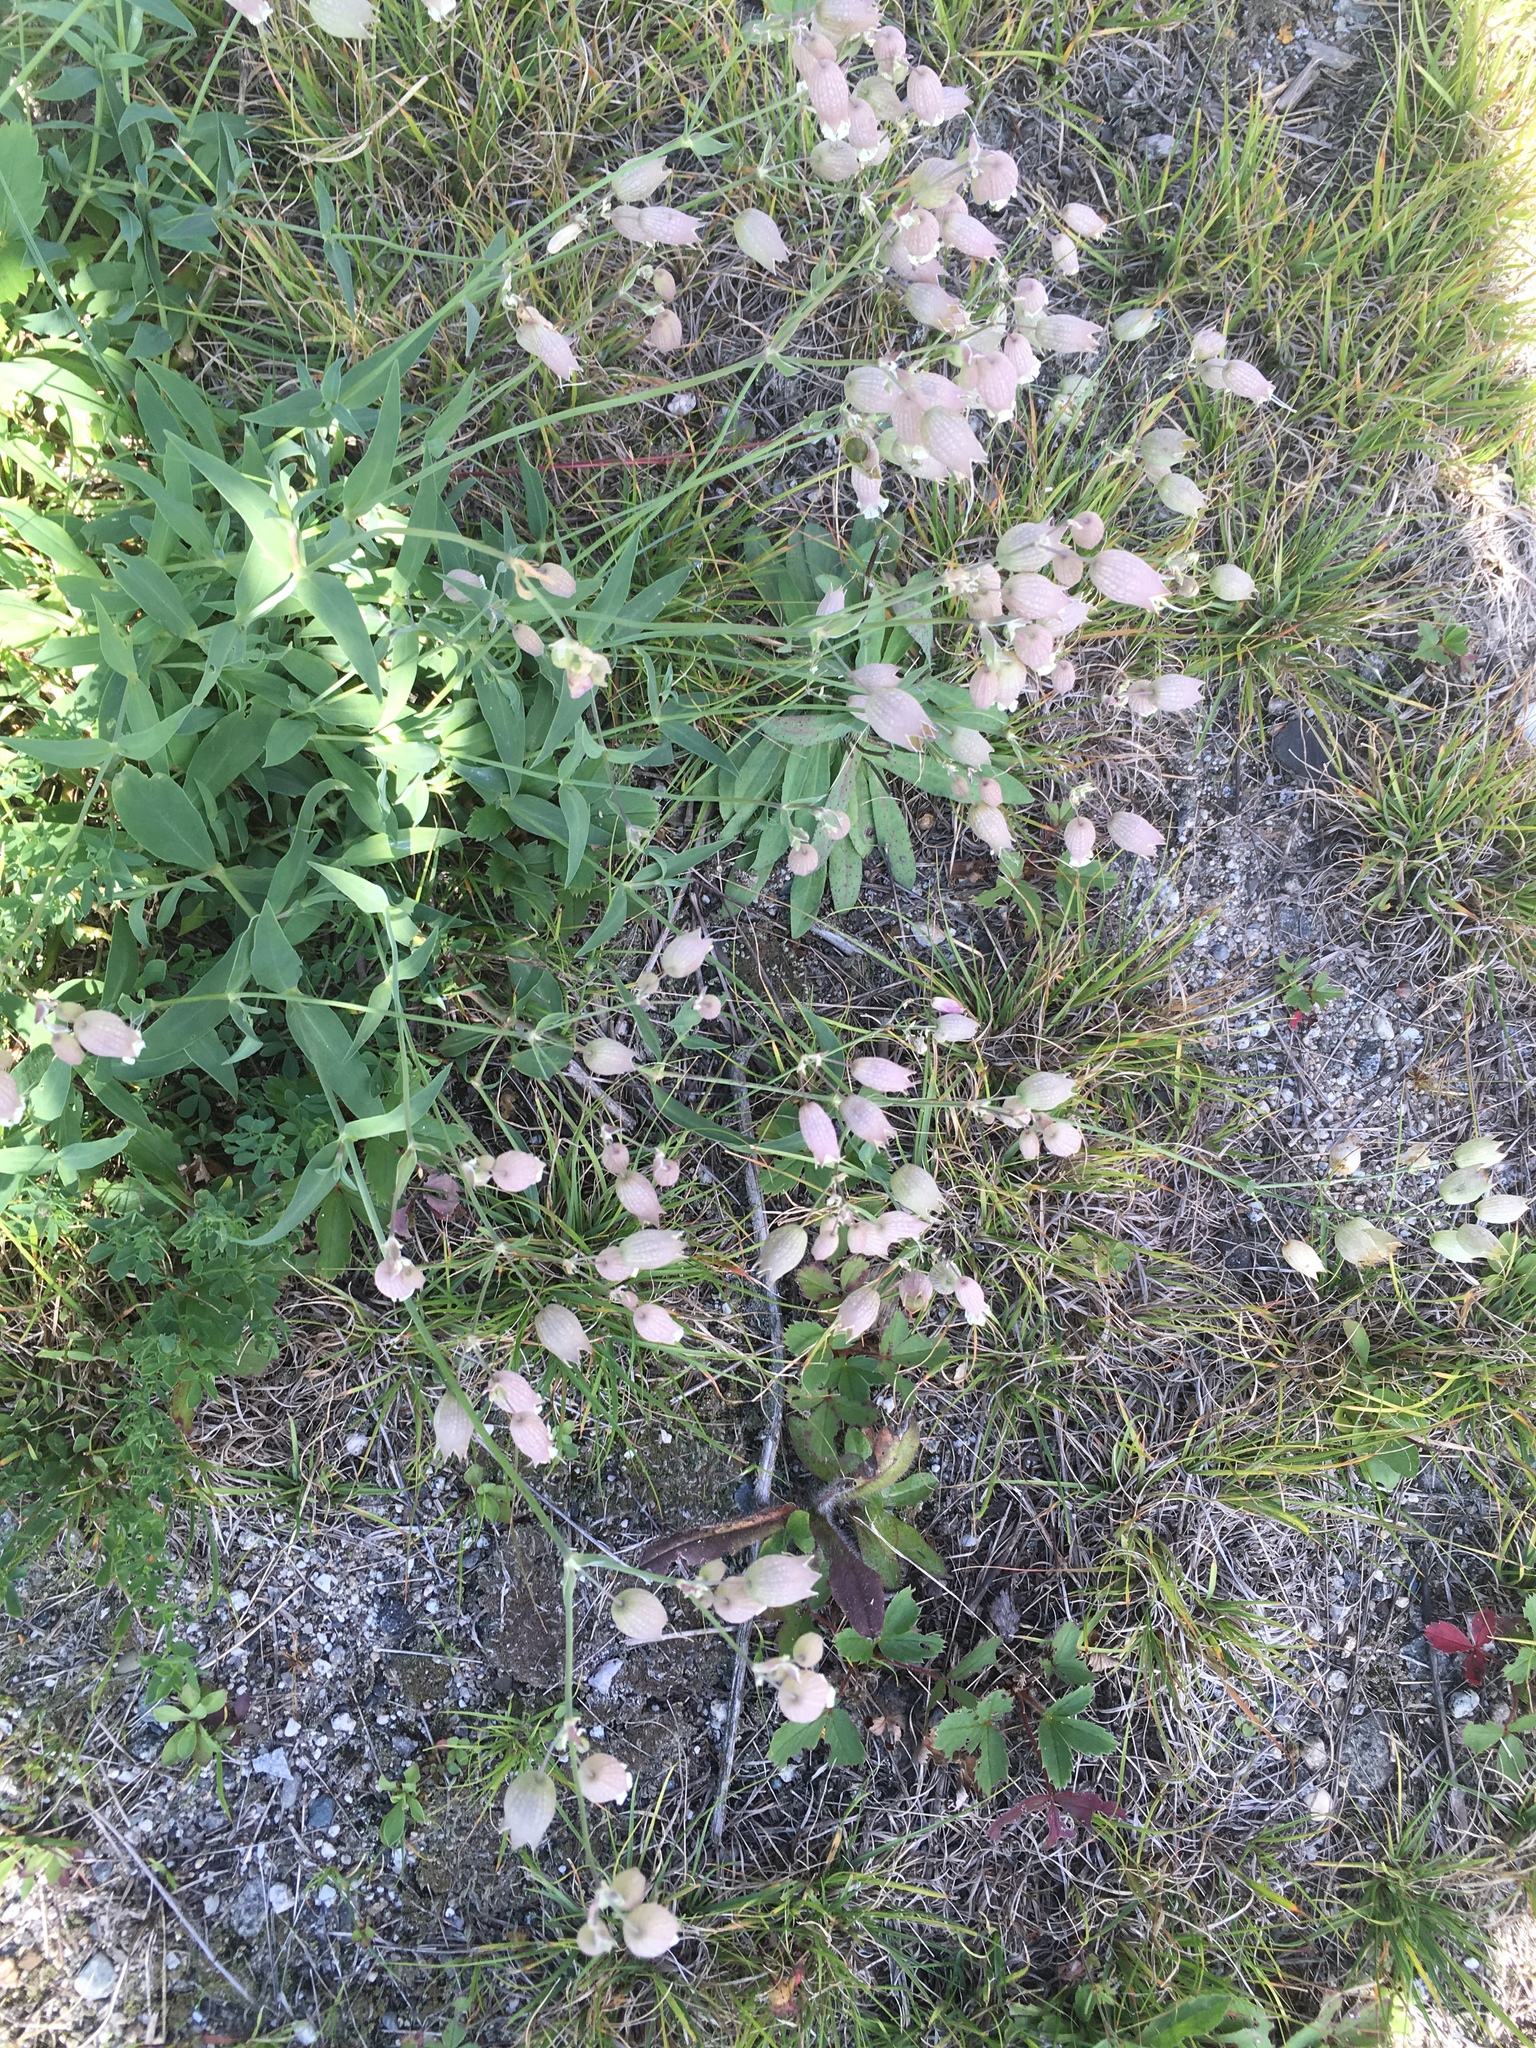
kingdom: Plantae
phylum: Tracheophyta
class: Magnoliopsida
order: Caryophyllales
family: Caryophyllaceae
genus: Silene
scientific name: Silene vulgaris
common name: Bladder campion
